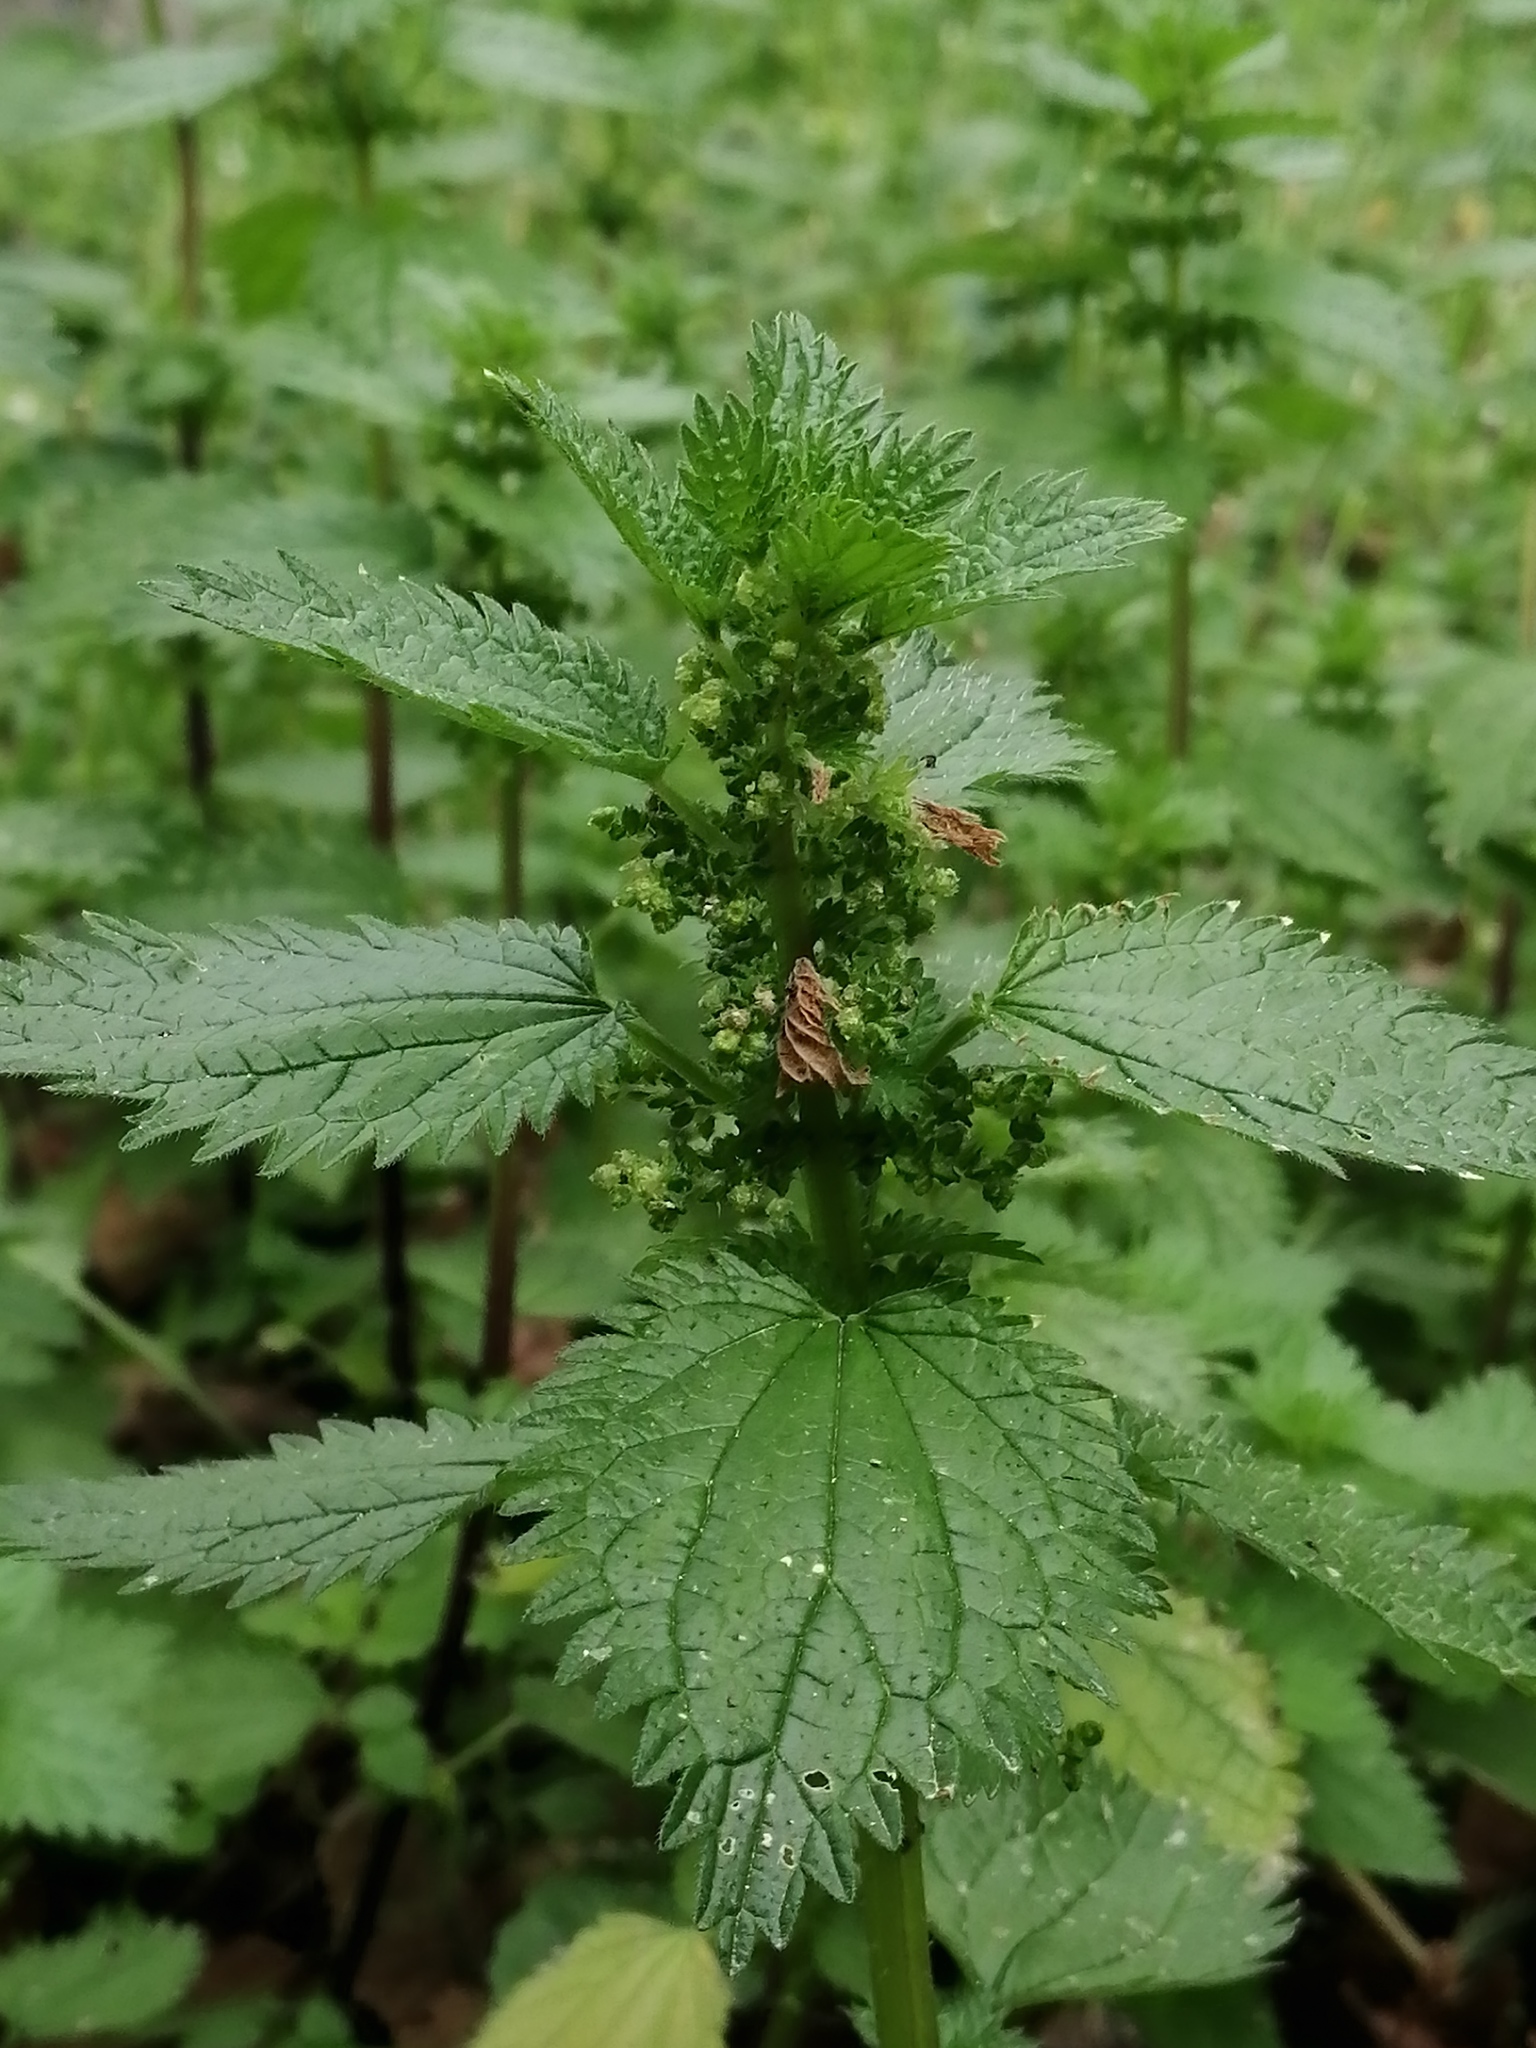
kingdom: Plantae
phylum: Tracheophyta
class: Magnoliopsida
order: Rosales
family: Urticaceae
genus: Urtica
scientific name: Urtica urens
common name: Dwarf nettle
